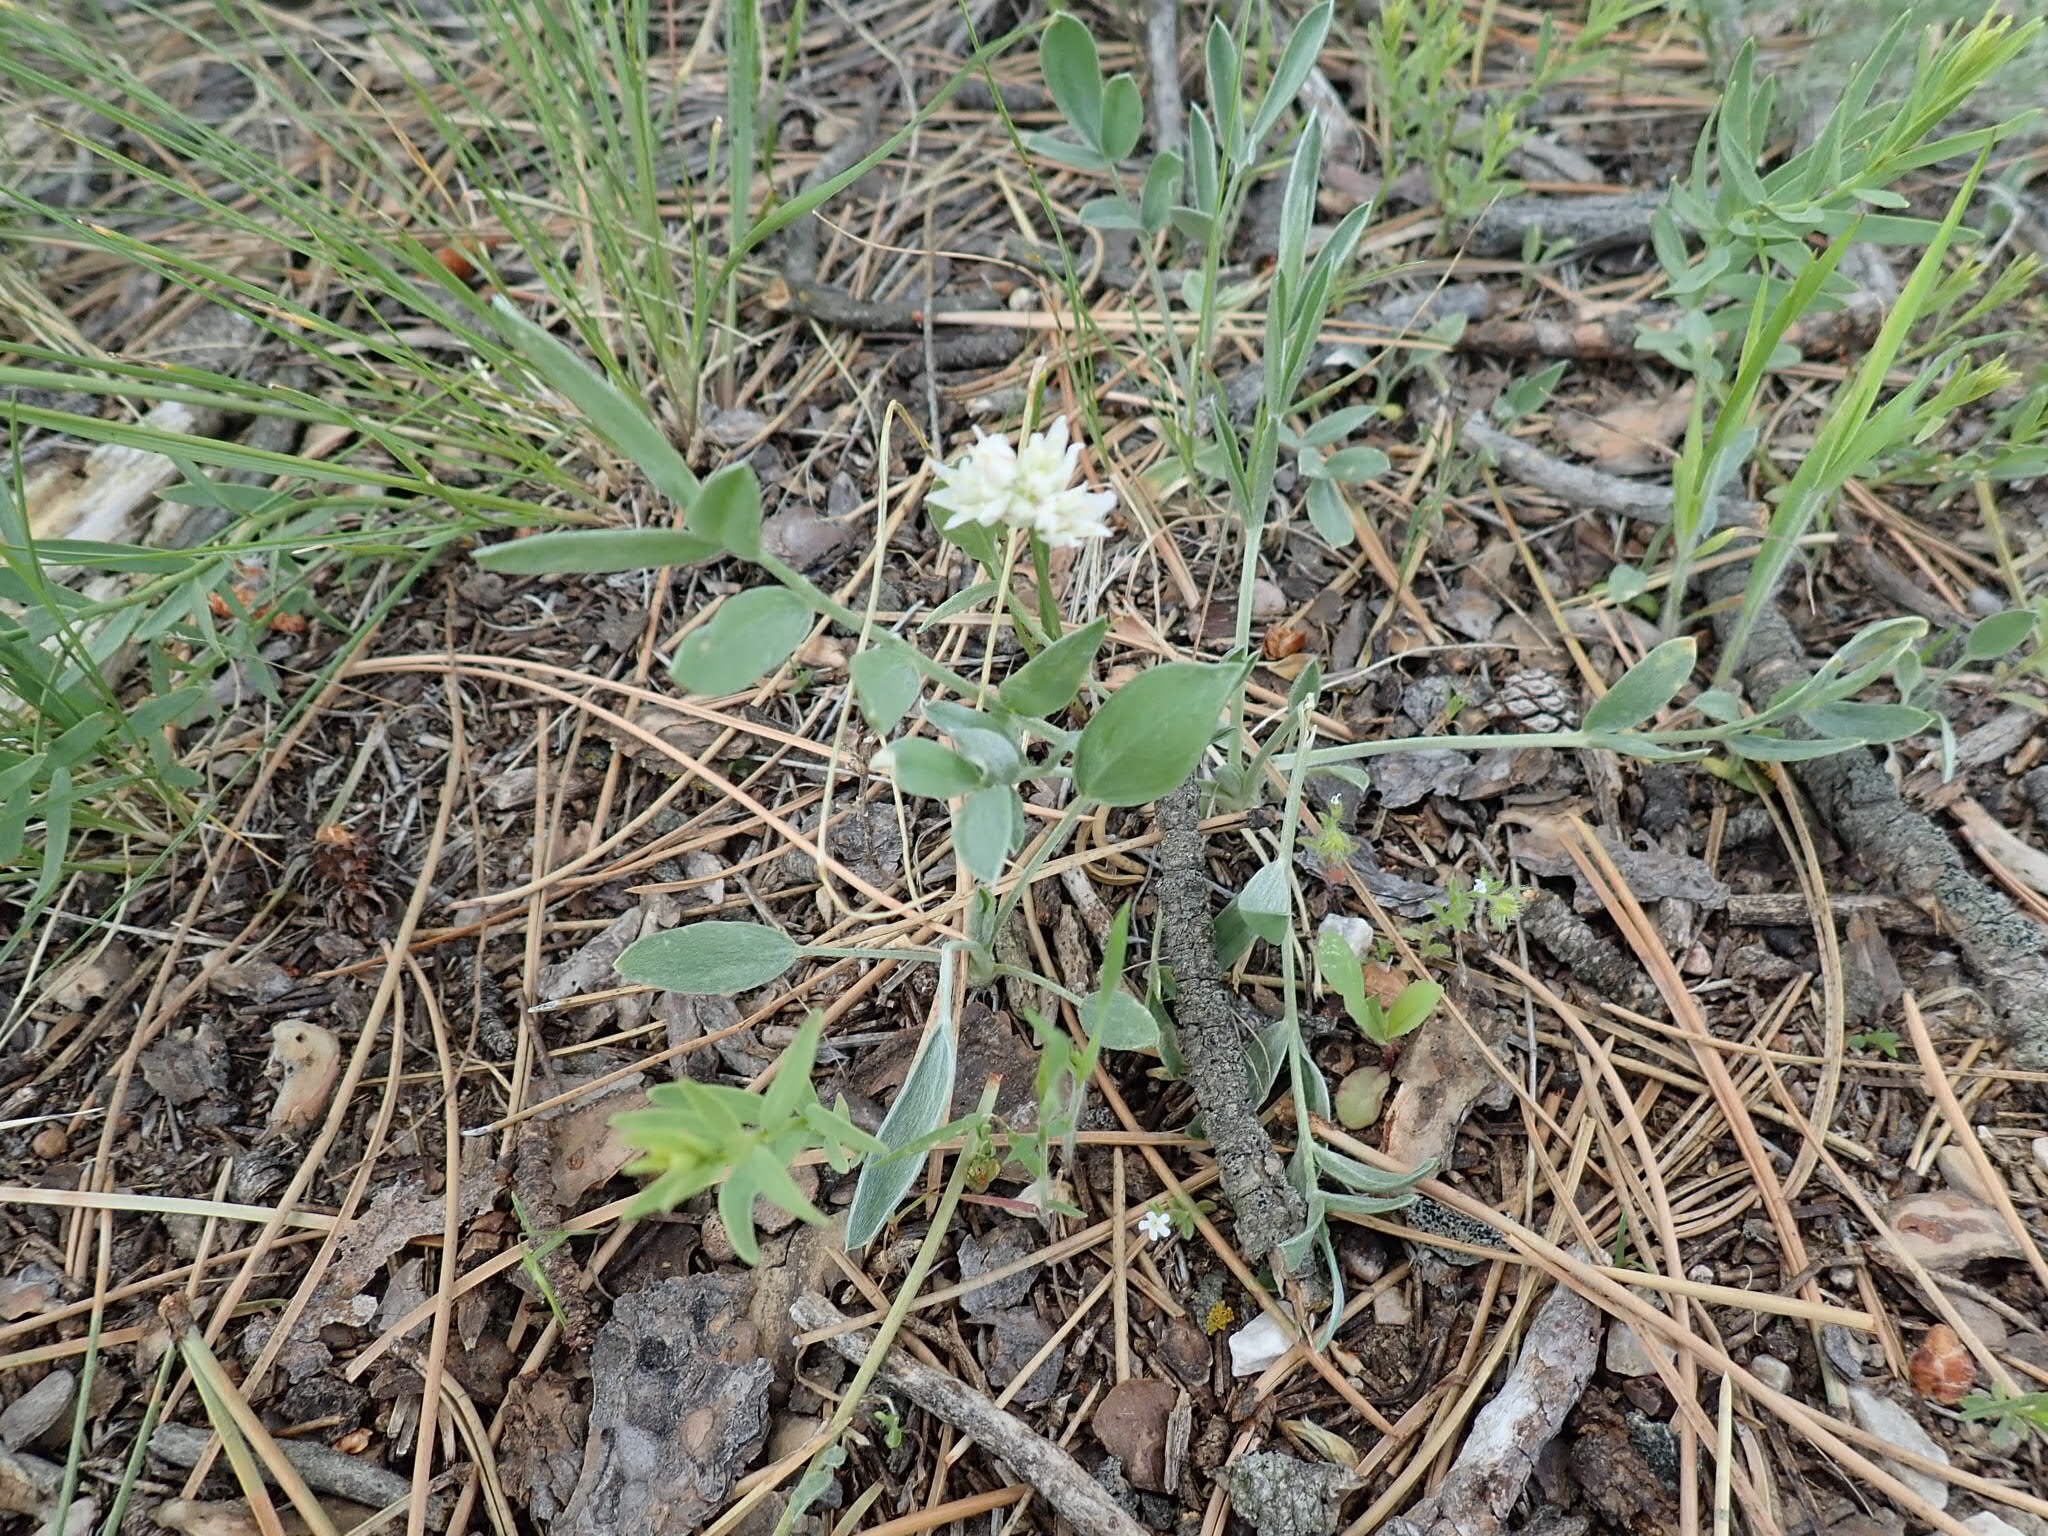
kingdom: Plantae
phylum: Tracheophyta
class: Liliopsida
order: Asparagales
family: Amaryllidaceae
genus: Allium
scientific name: Allium textile
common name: Prairie onion
